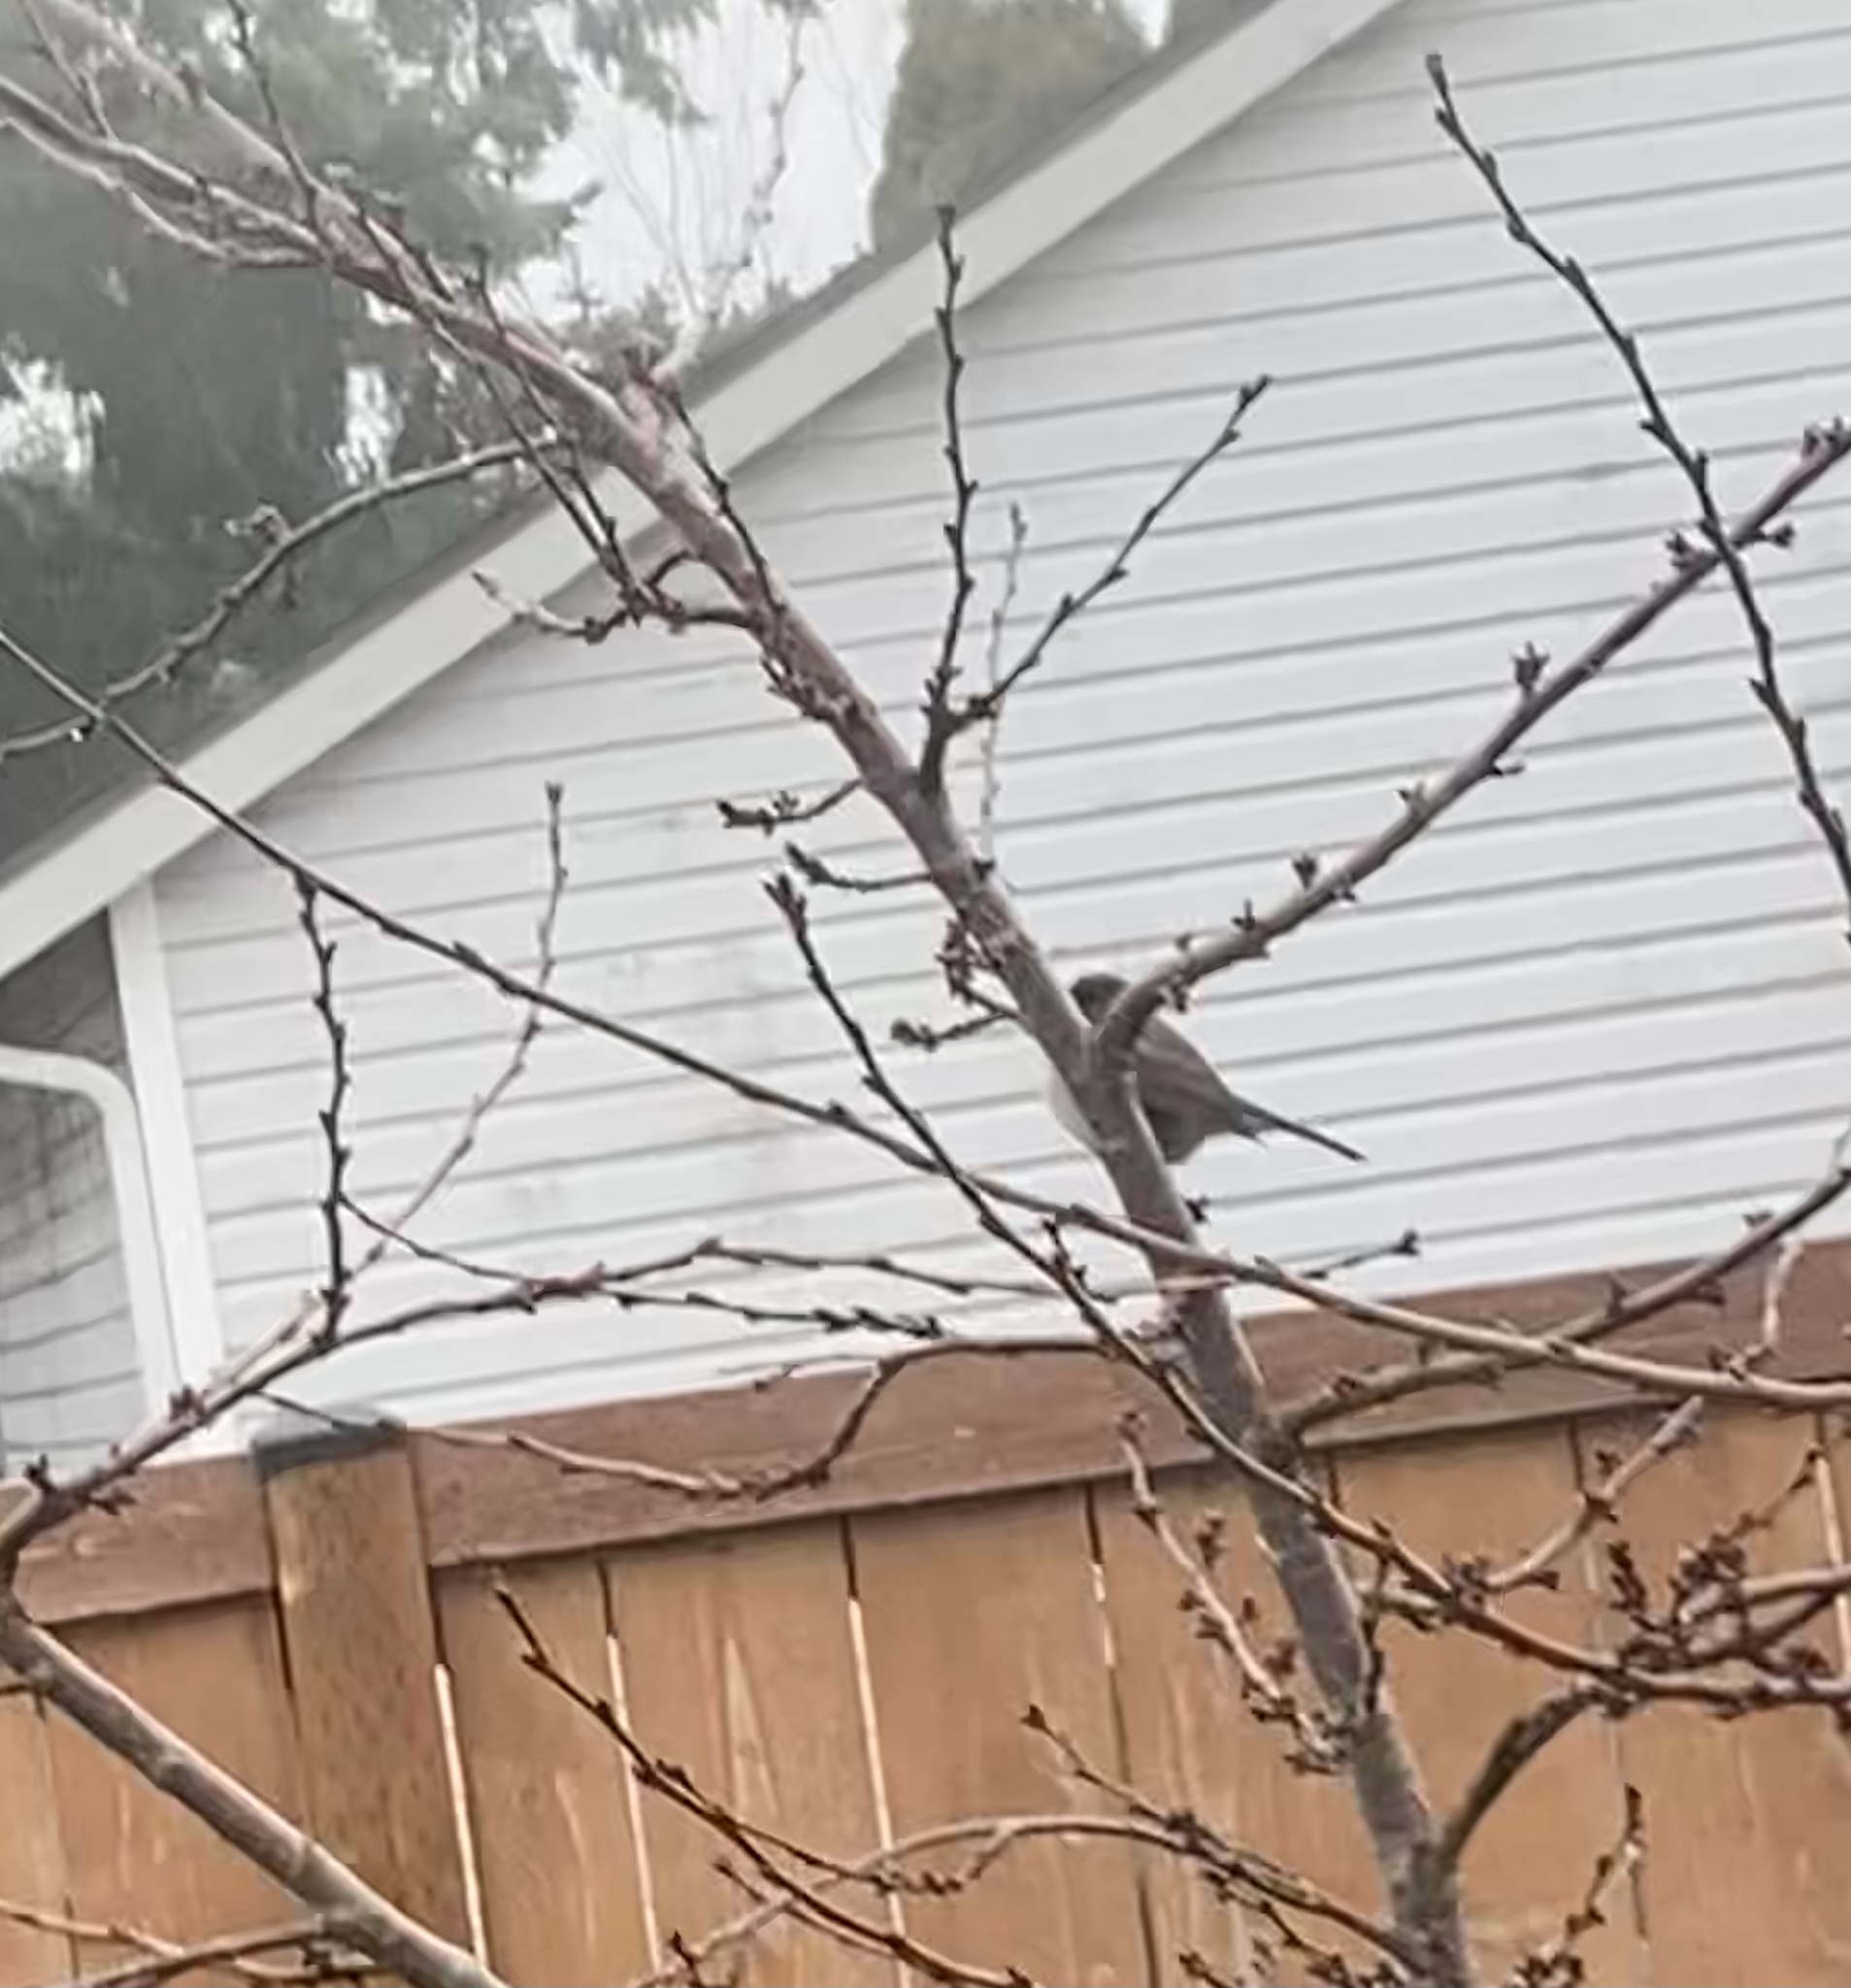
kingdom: Animalia
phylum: Chordata
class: Aves
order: Passeriformes
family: Passerellidae
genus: Junco
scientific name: Junco hyemalis
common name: Dark-eyed junco
